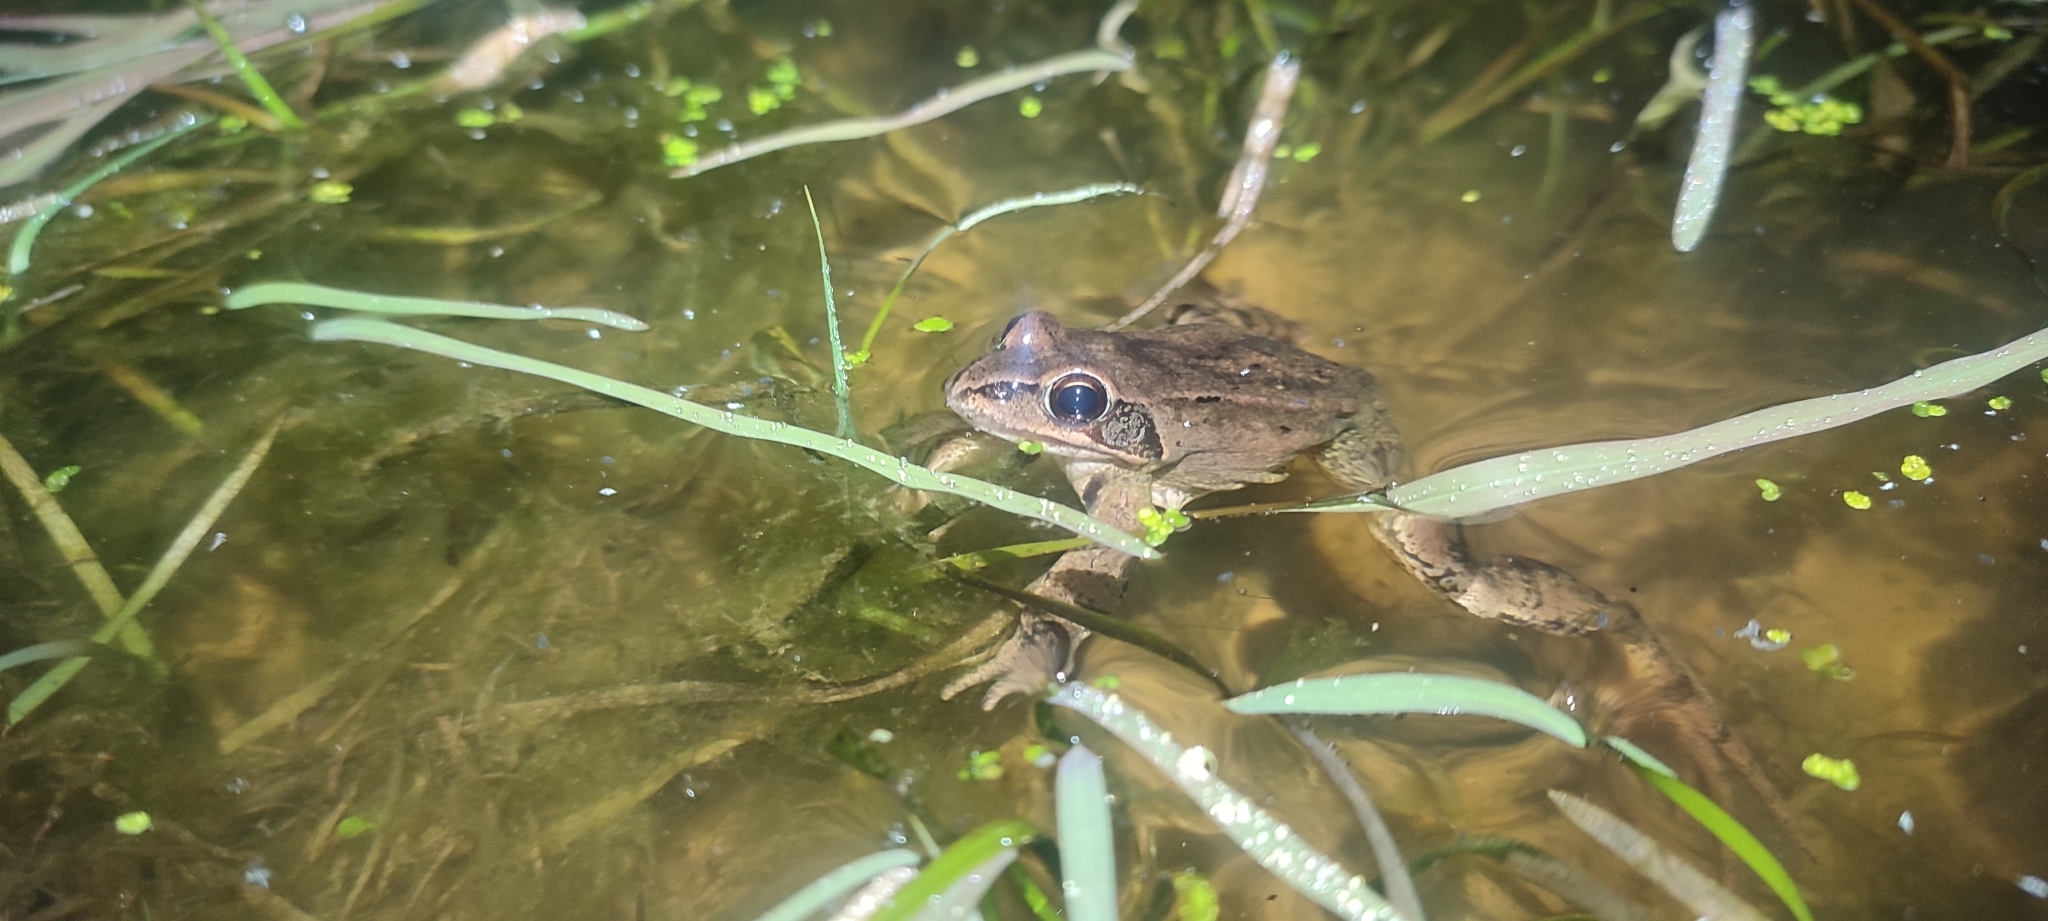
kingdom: Animalia
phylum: Chordata
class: Amphibia
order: Anura
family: Ranidae
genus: Rana
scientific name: Rana dalmatina
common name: Agile frog
